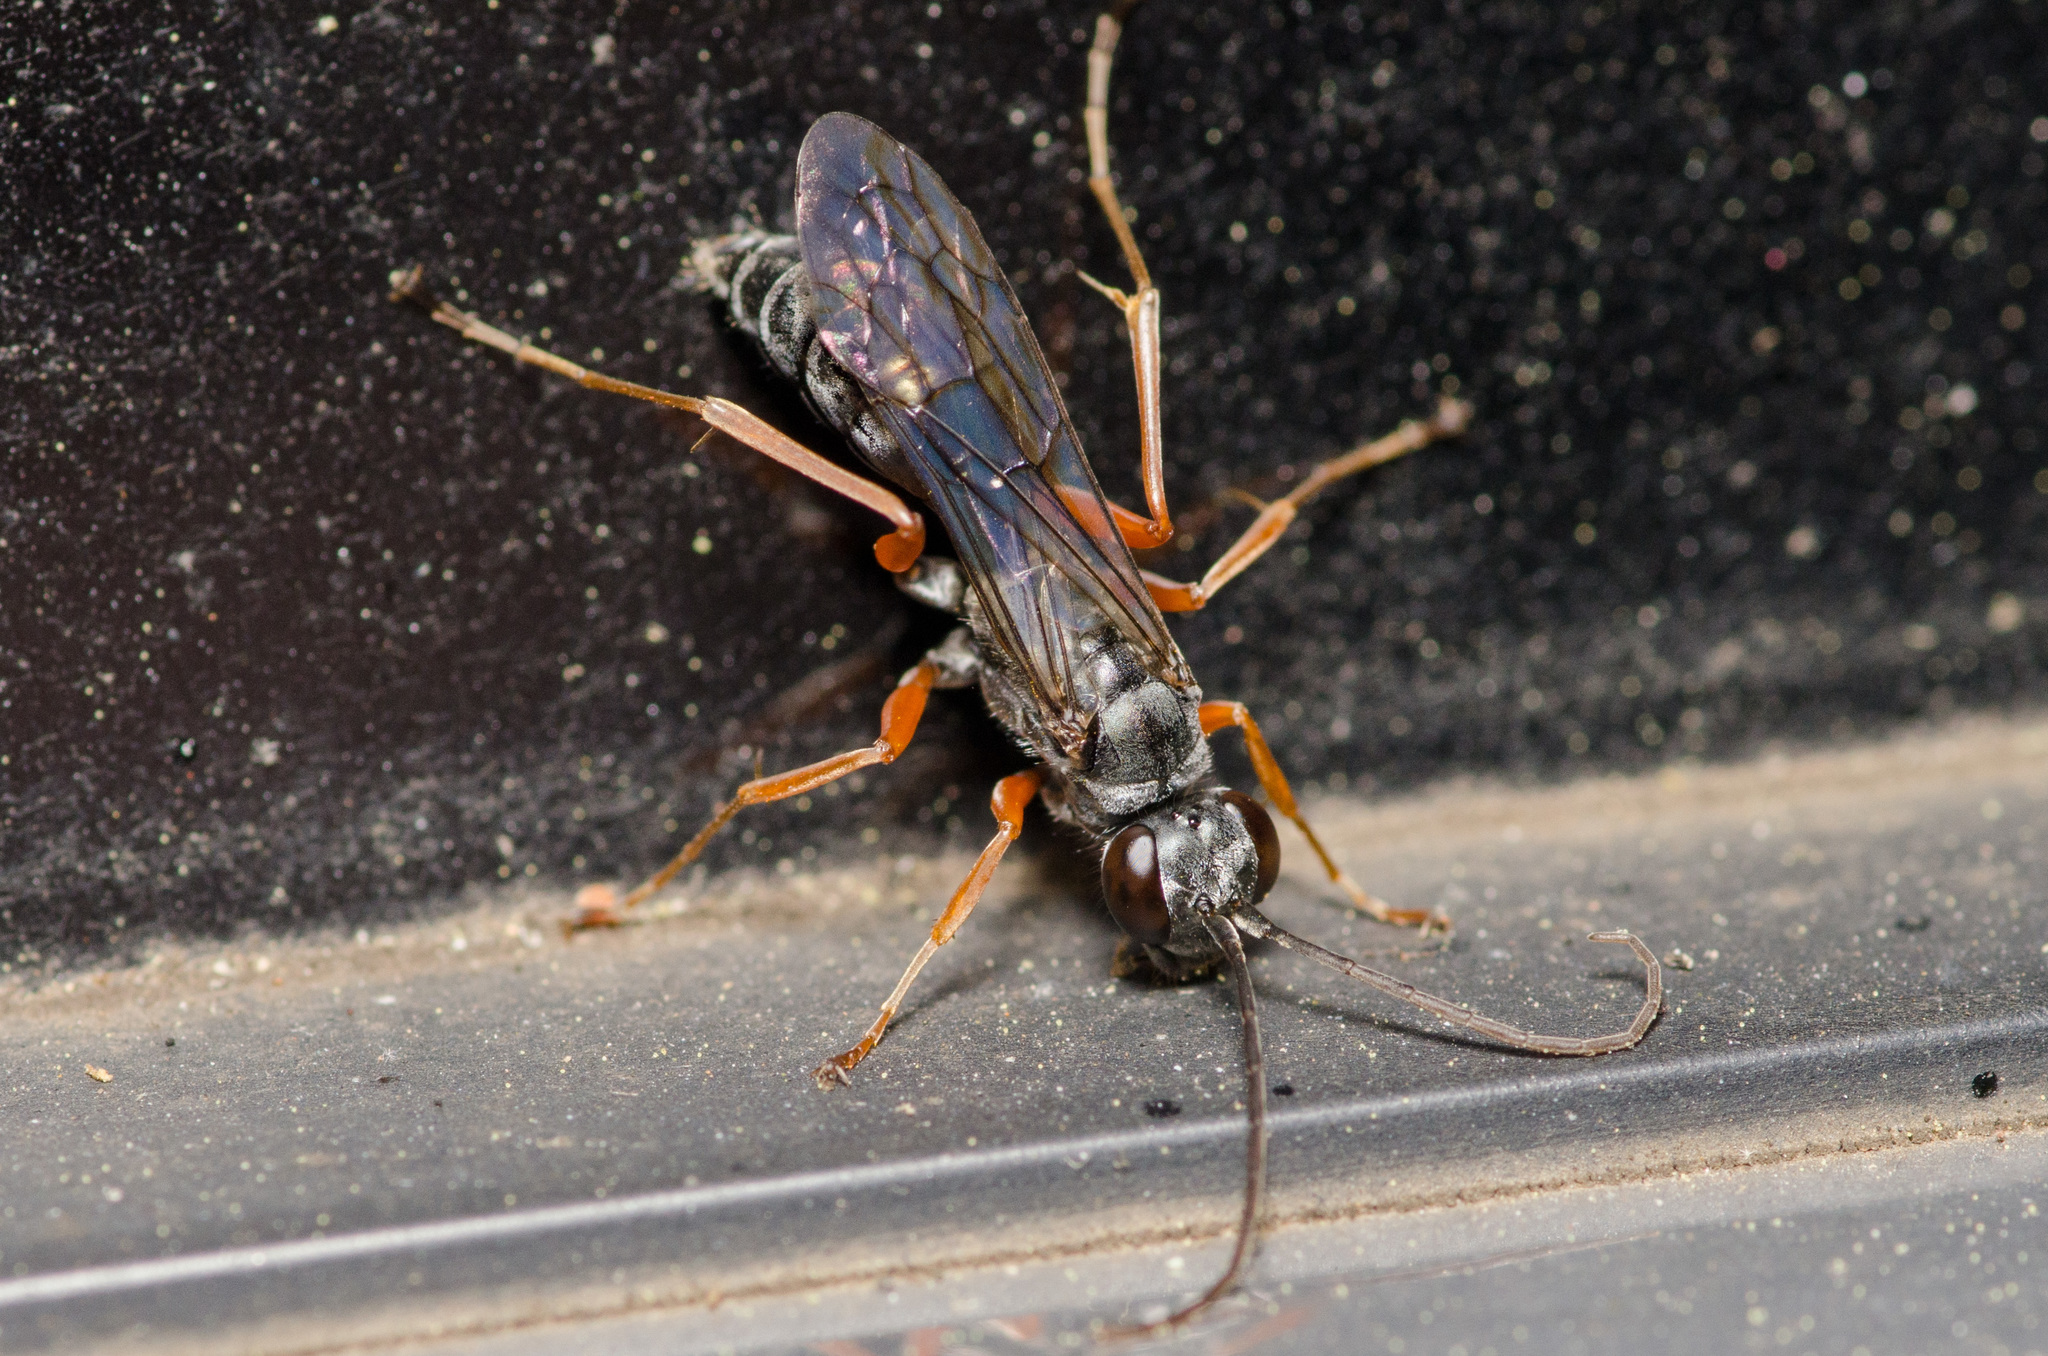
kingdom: Animalia
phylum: Arthropoda
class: Insecta
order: Hymenoptera
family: Pompilidae
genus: Auplopus
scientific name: Auplopus mellipes
